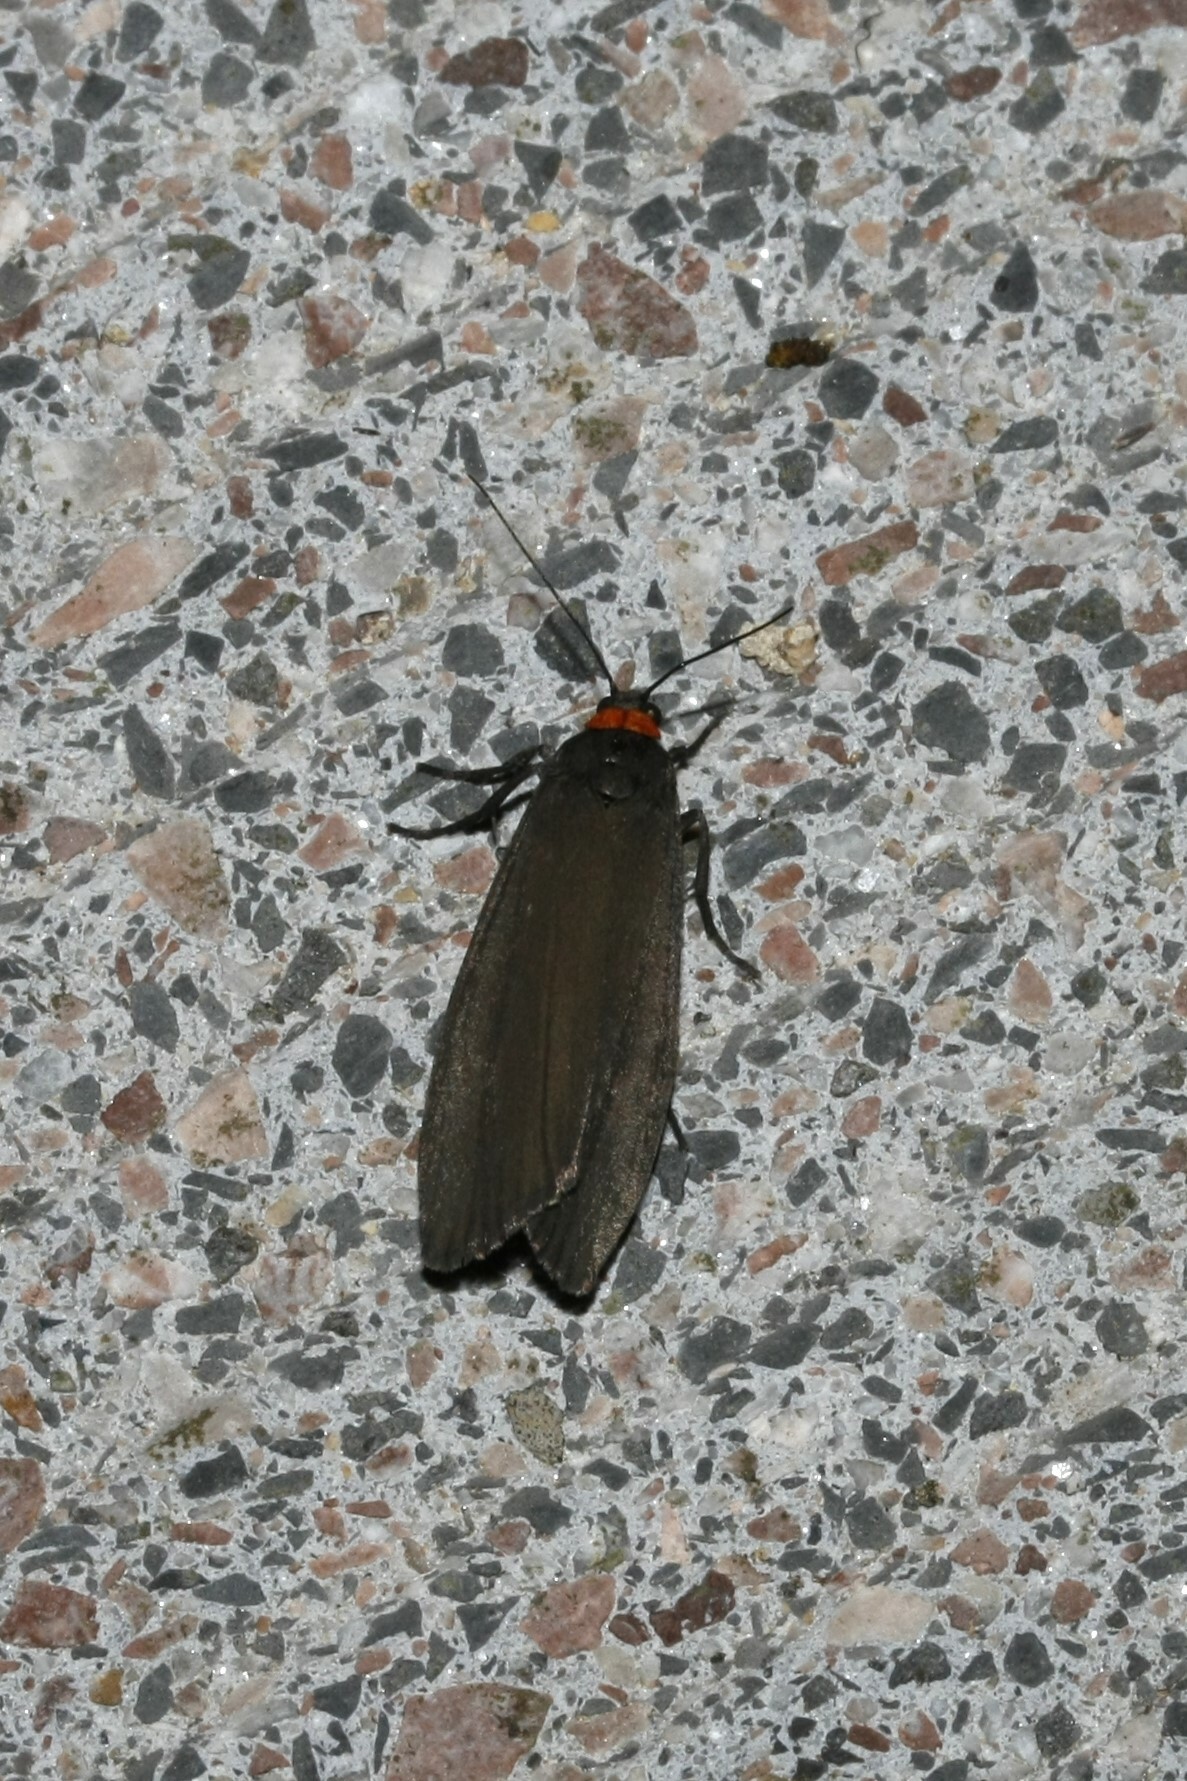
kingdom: Animalia
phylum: Arthropoda
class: Insecta
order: Lepidoptera
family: Erebidae
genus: Atolmis
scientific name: Atolmis rubricollis
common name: Red-necked footman
